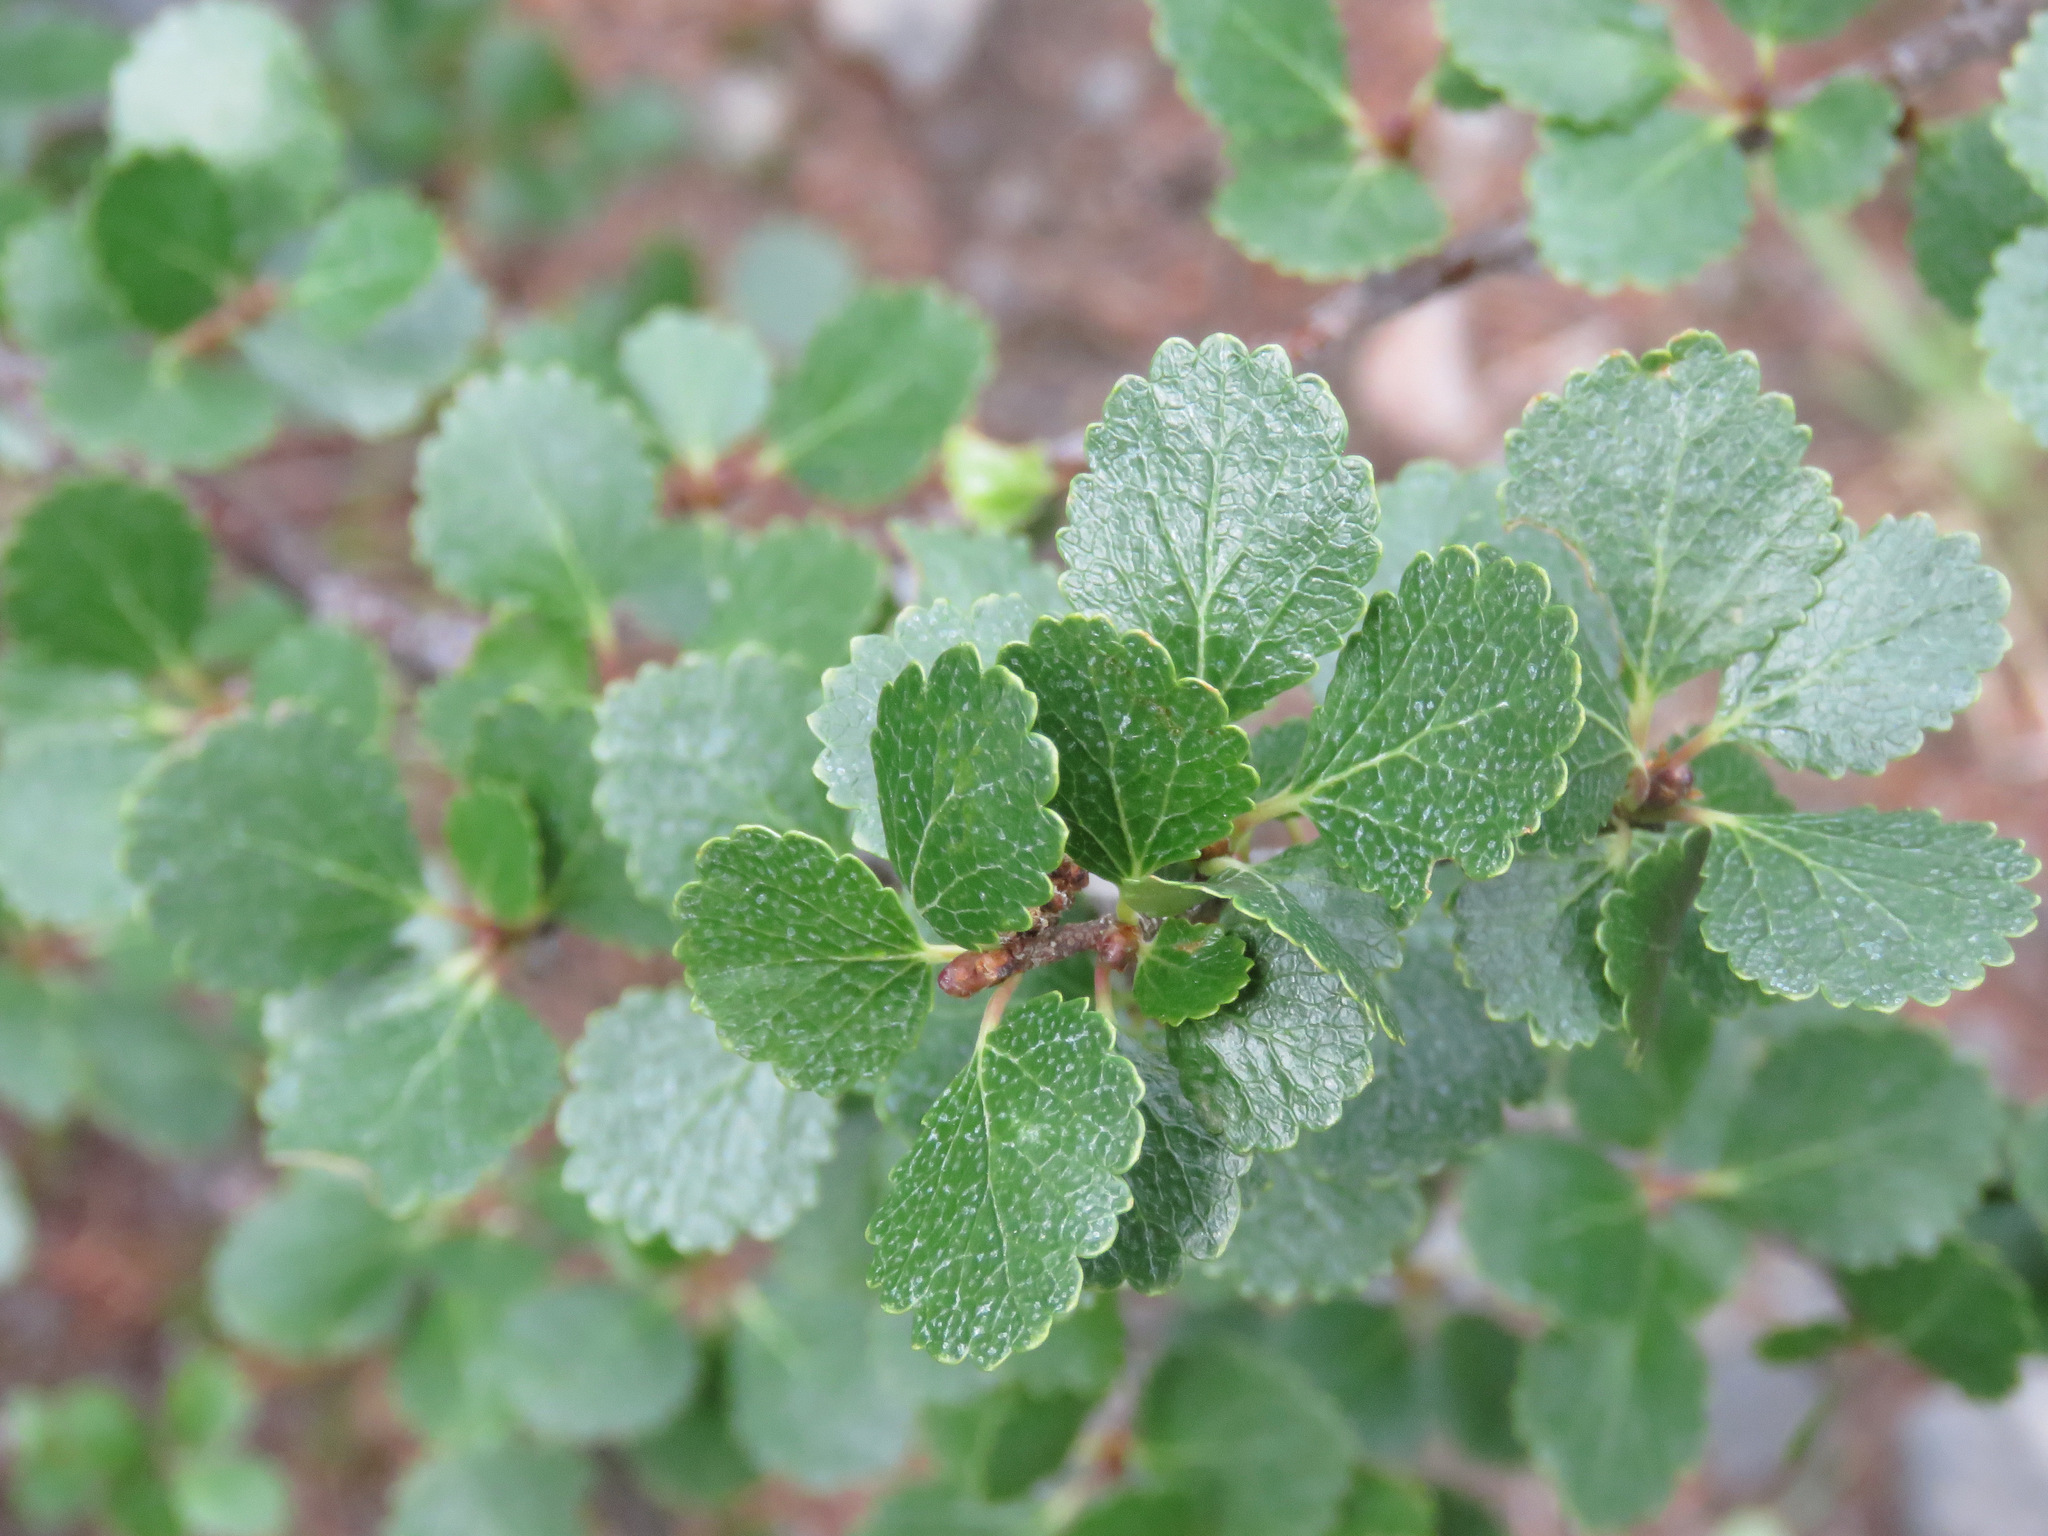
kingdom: Plantae
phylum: Tracheophyta
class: Magnoliopsida
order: Fagales
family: Betulaceae
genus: Betula
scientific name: Betula glandulosa
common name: Dwarf birch
